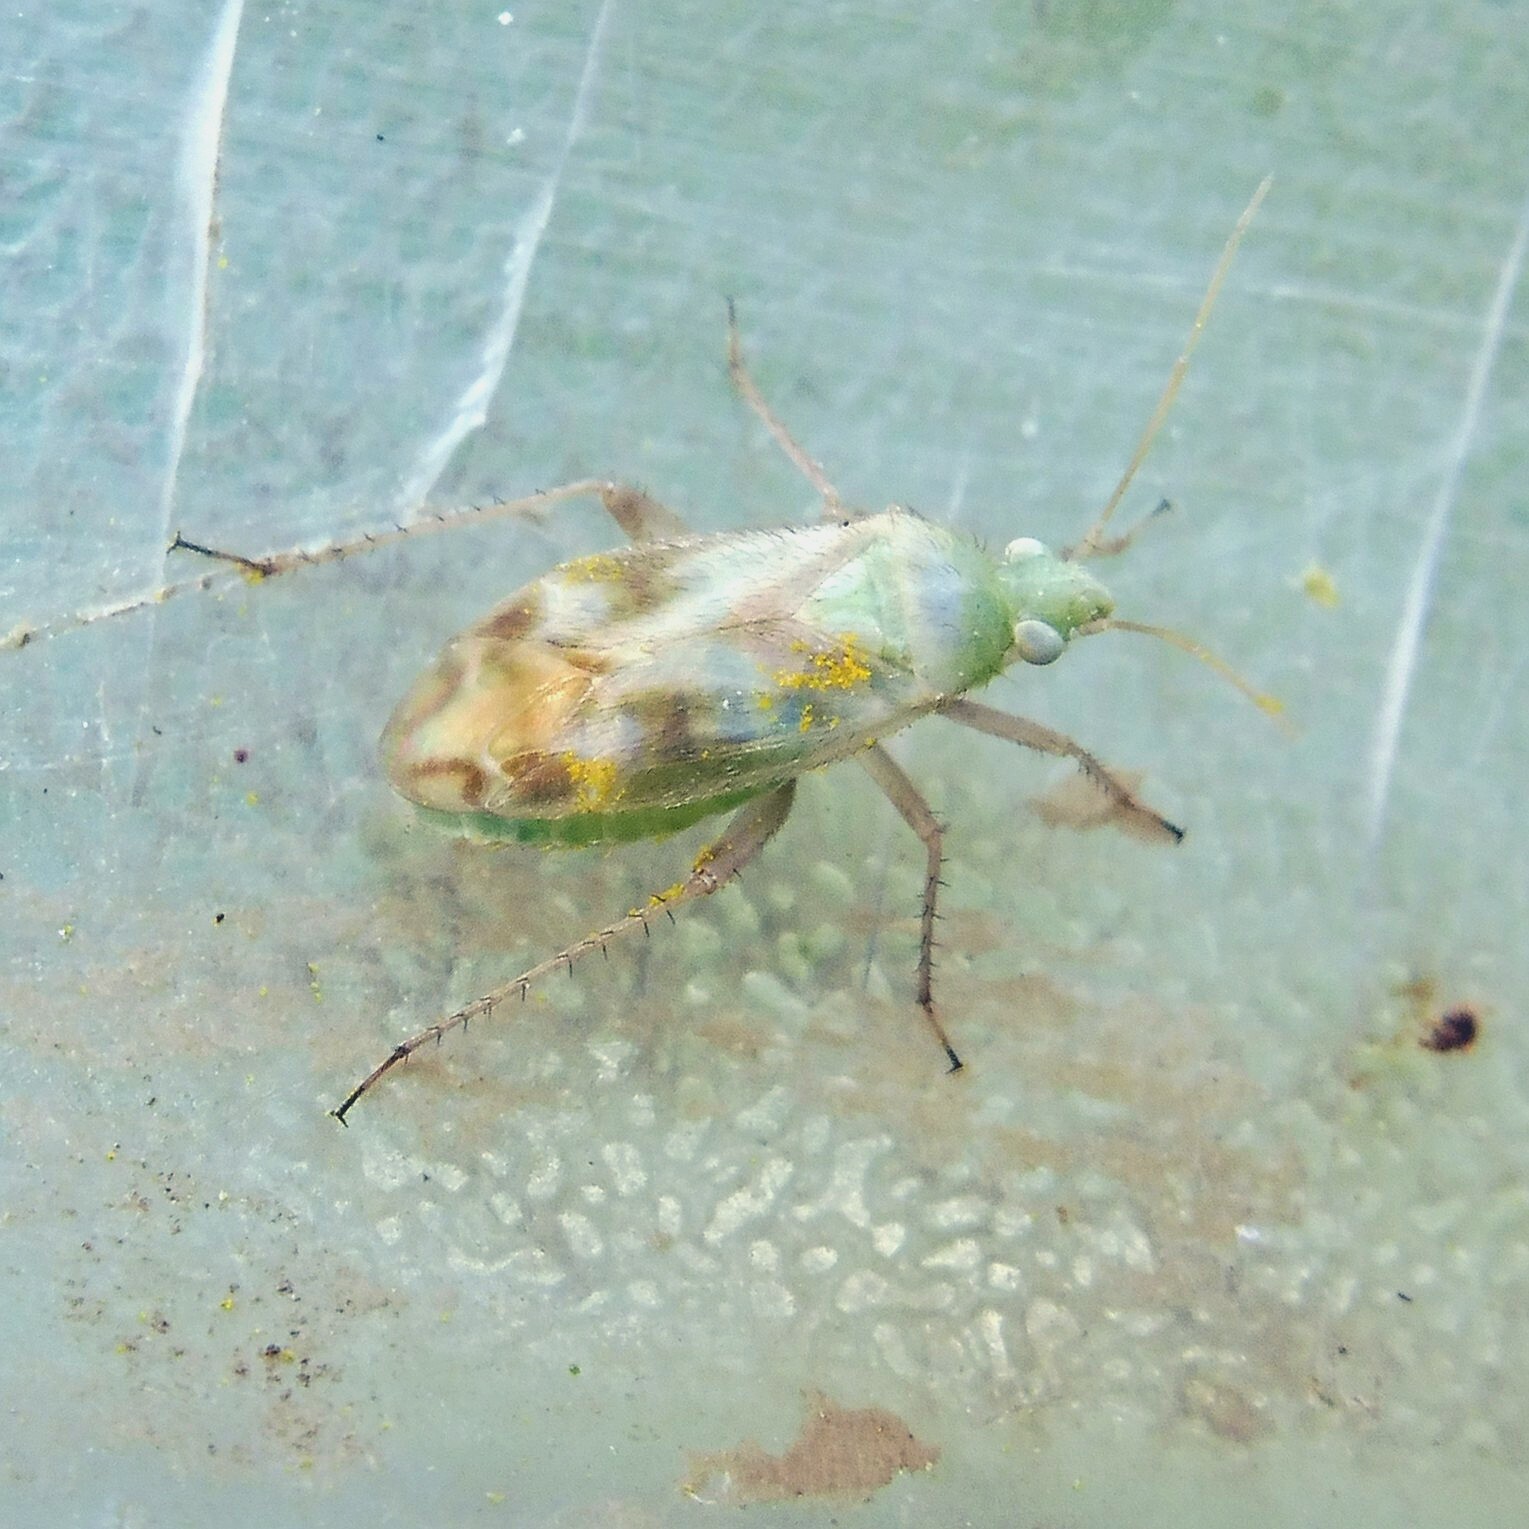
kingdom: Animalia
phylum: Arthropoda
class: Insecta
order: Hemiptera
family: Miridae
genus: Megalocoleus
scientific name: Megalocoleus molliculus
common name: Plant bug
